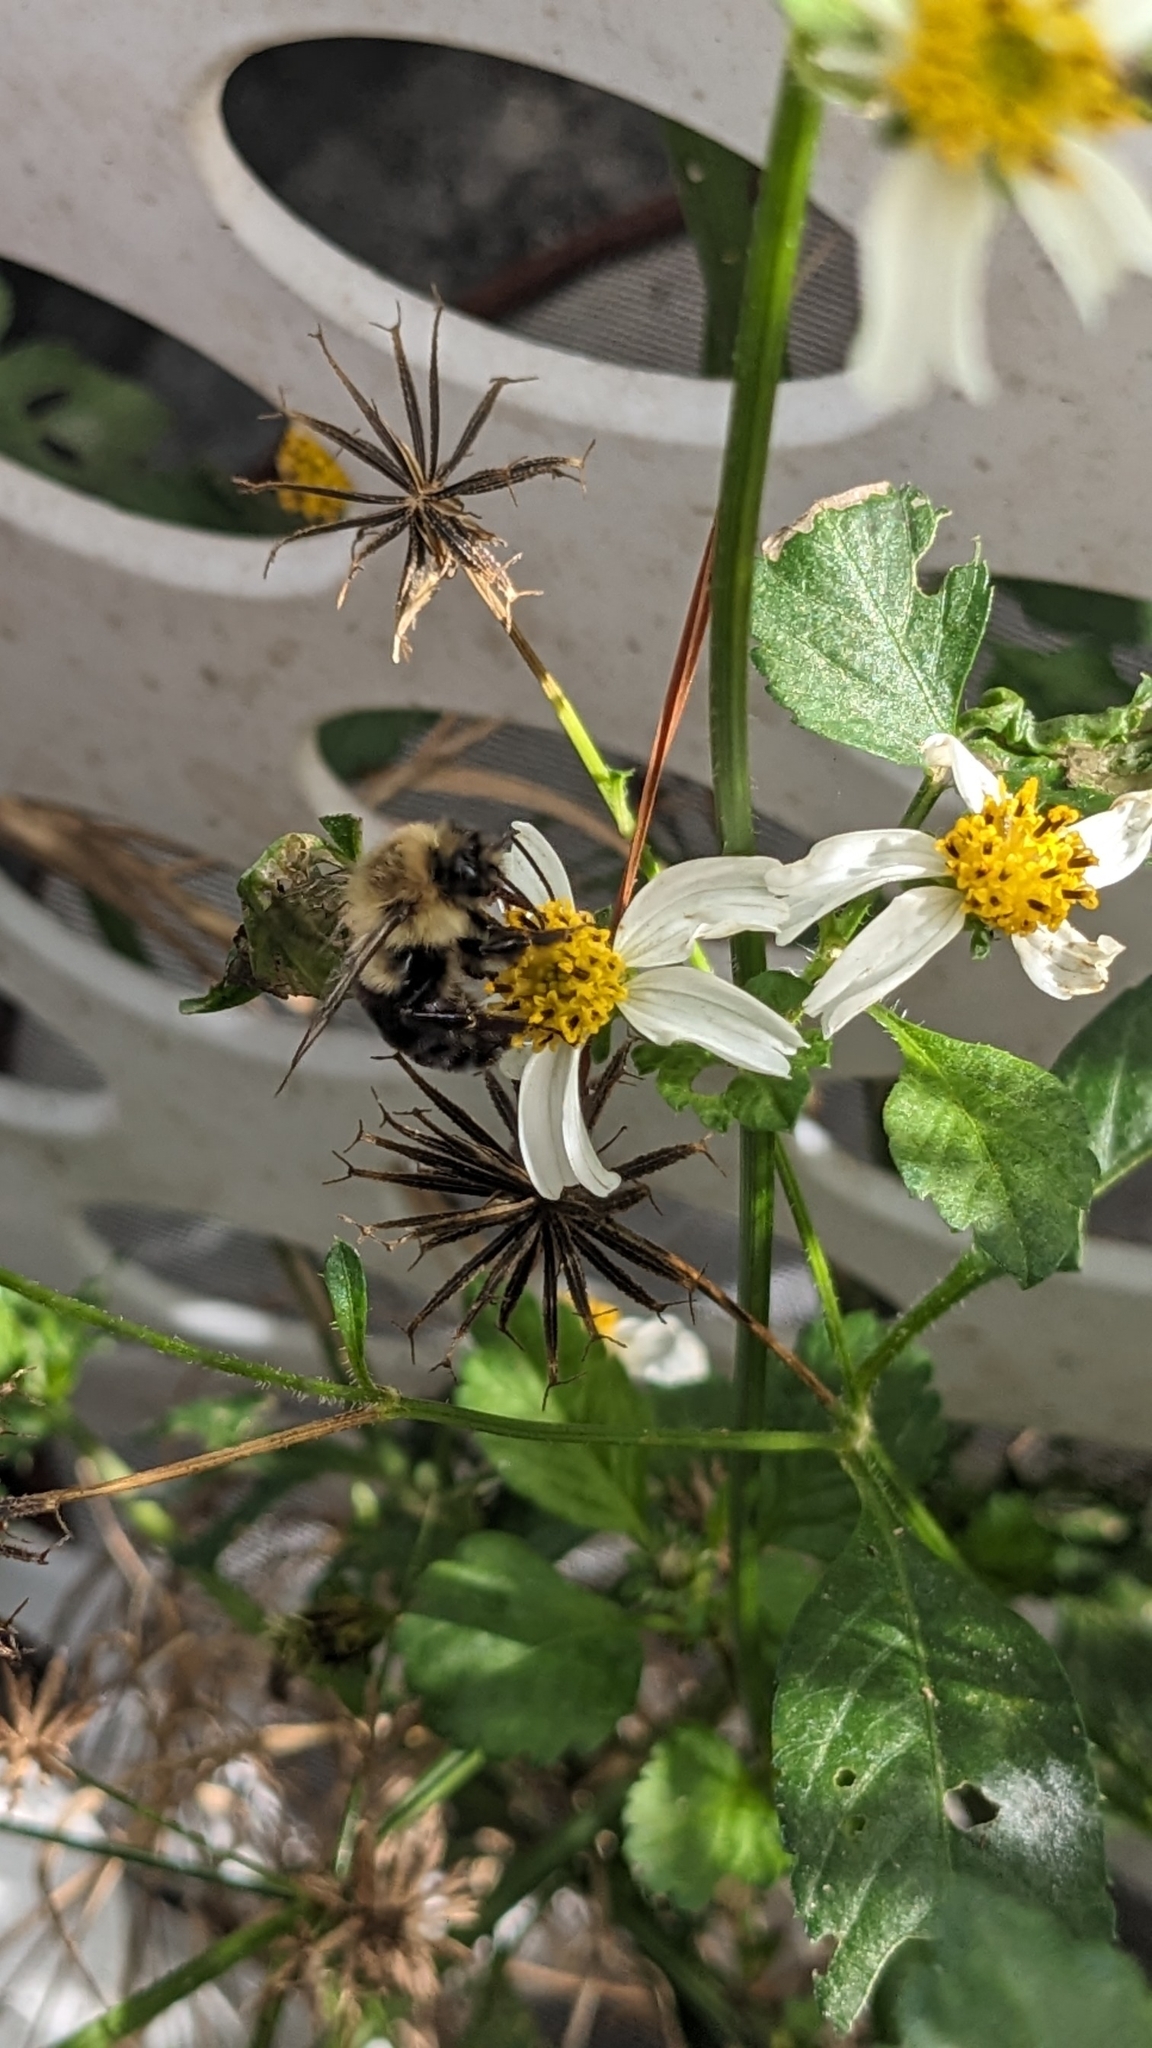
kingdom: Animalia
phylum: Arthropoda
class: Insecta
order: Hymenoptera
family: Apidae
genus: Bombus
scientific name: Bombus impatiens
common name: Common eastern bumble bee
